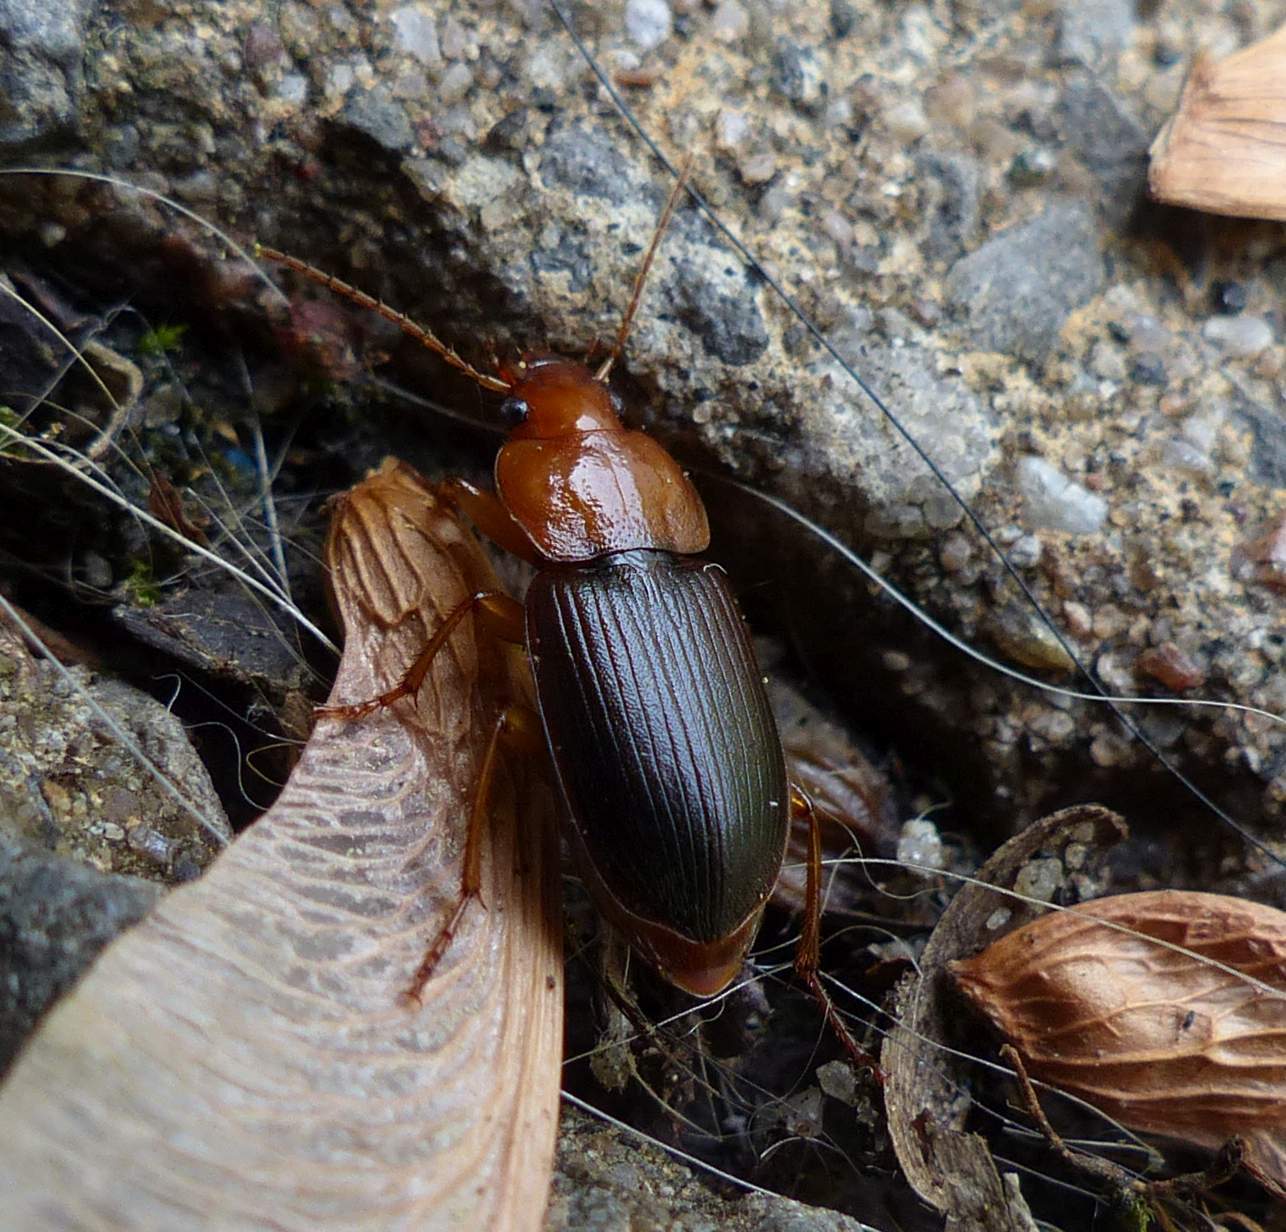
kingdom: Animalia
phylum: Arthropoda
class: Insecta
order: Coleoptera
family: Carabidae
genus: Amphasia
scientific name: Amphasia interstitialis
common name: Red-headed ground beetle
